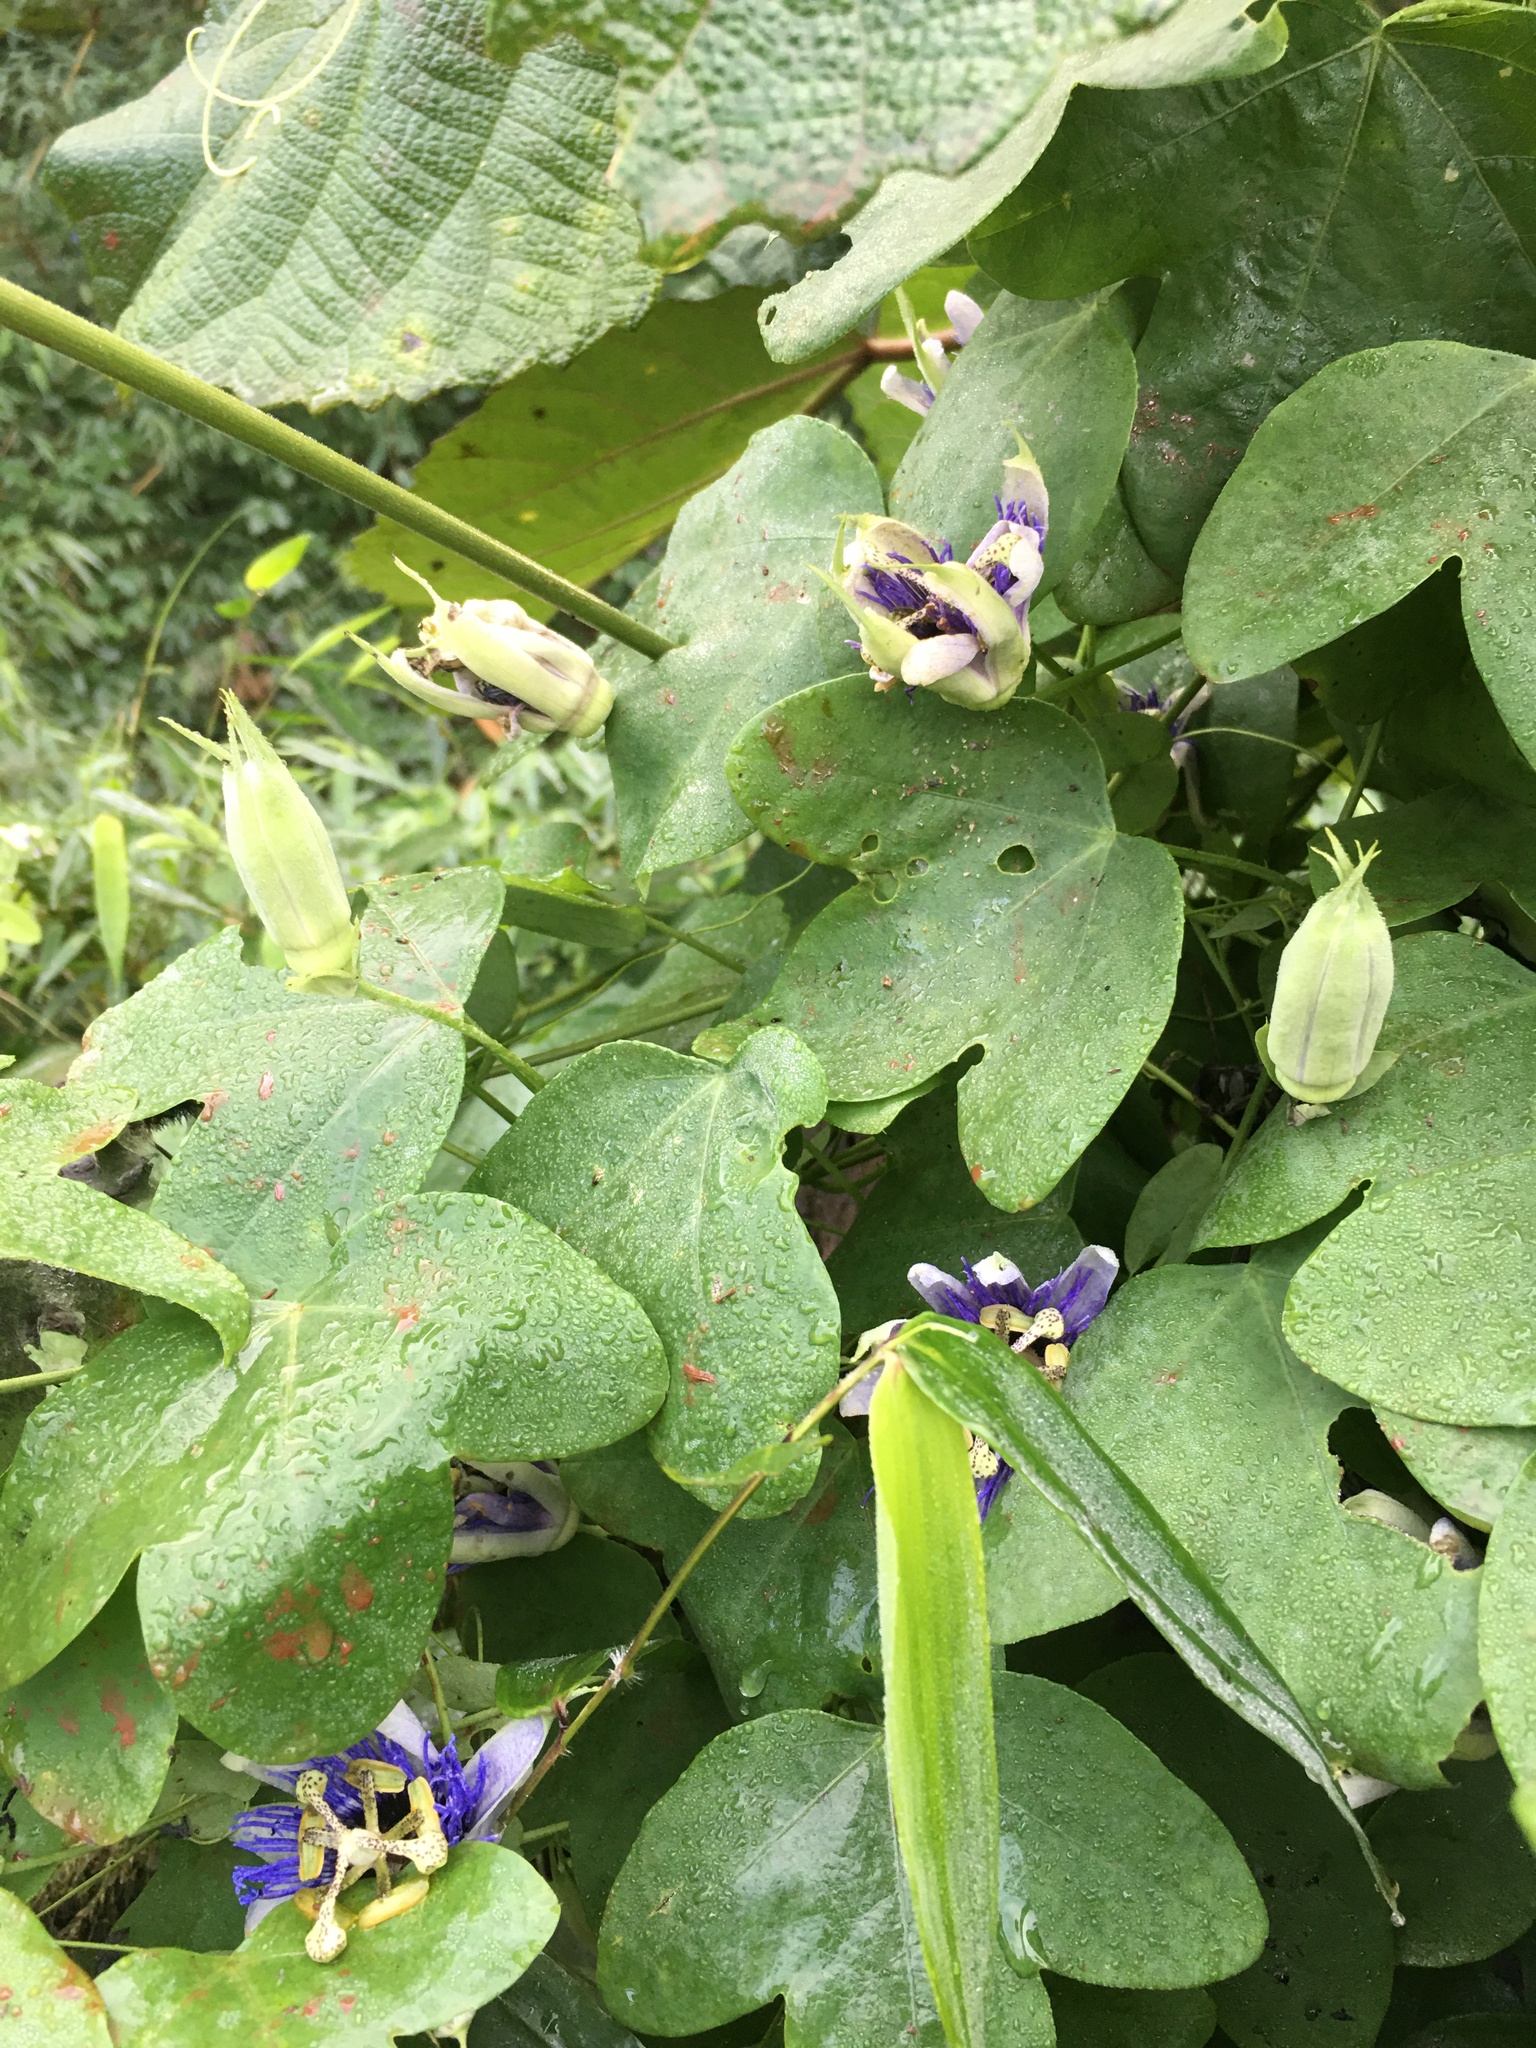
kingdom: Plantae
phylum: Tracheophyta
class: Magnoliopsida
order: Malpighiales
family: Passifloraceae
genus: Passiflora
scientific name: Passiflora amethystina
